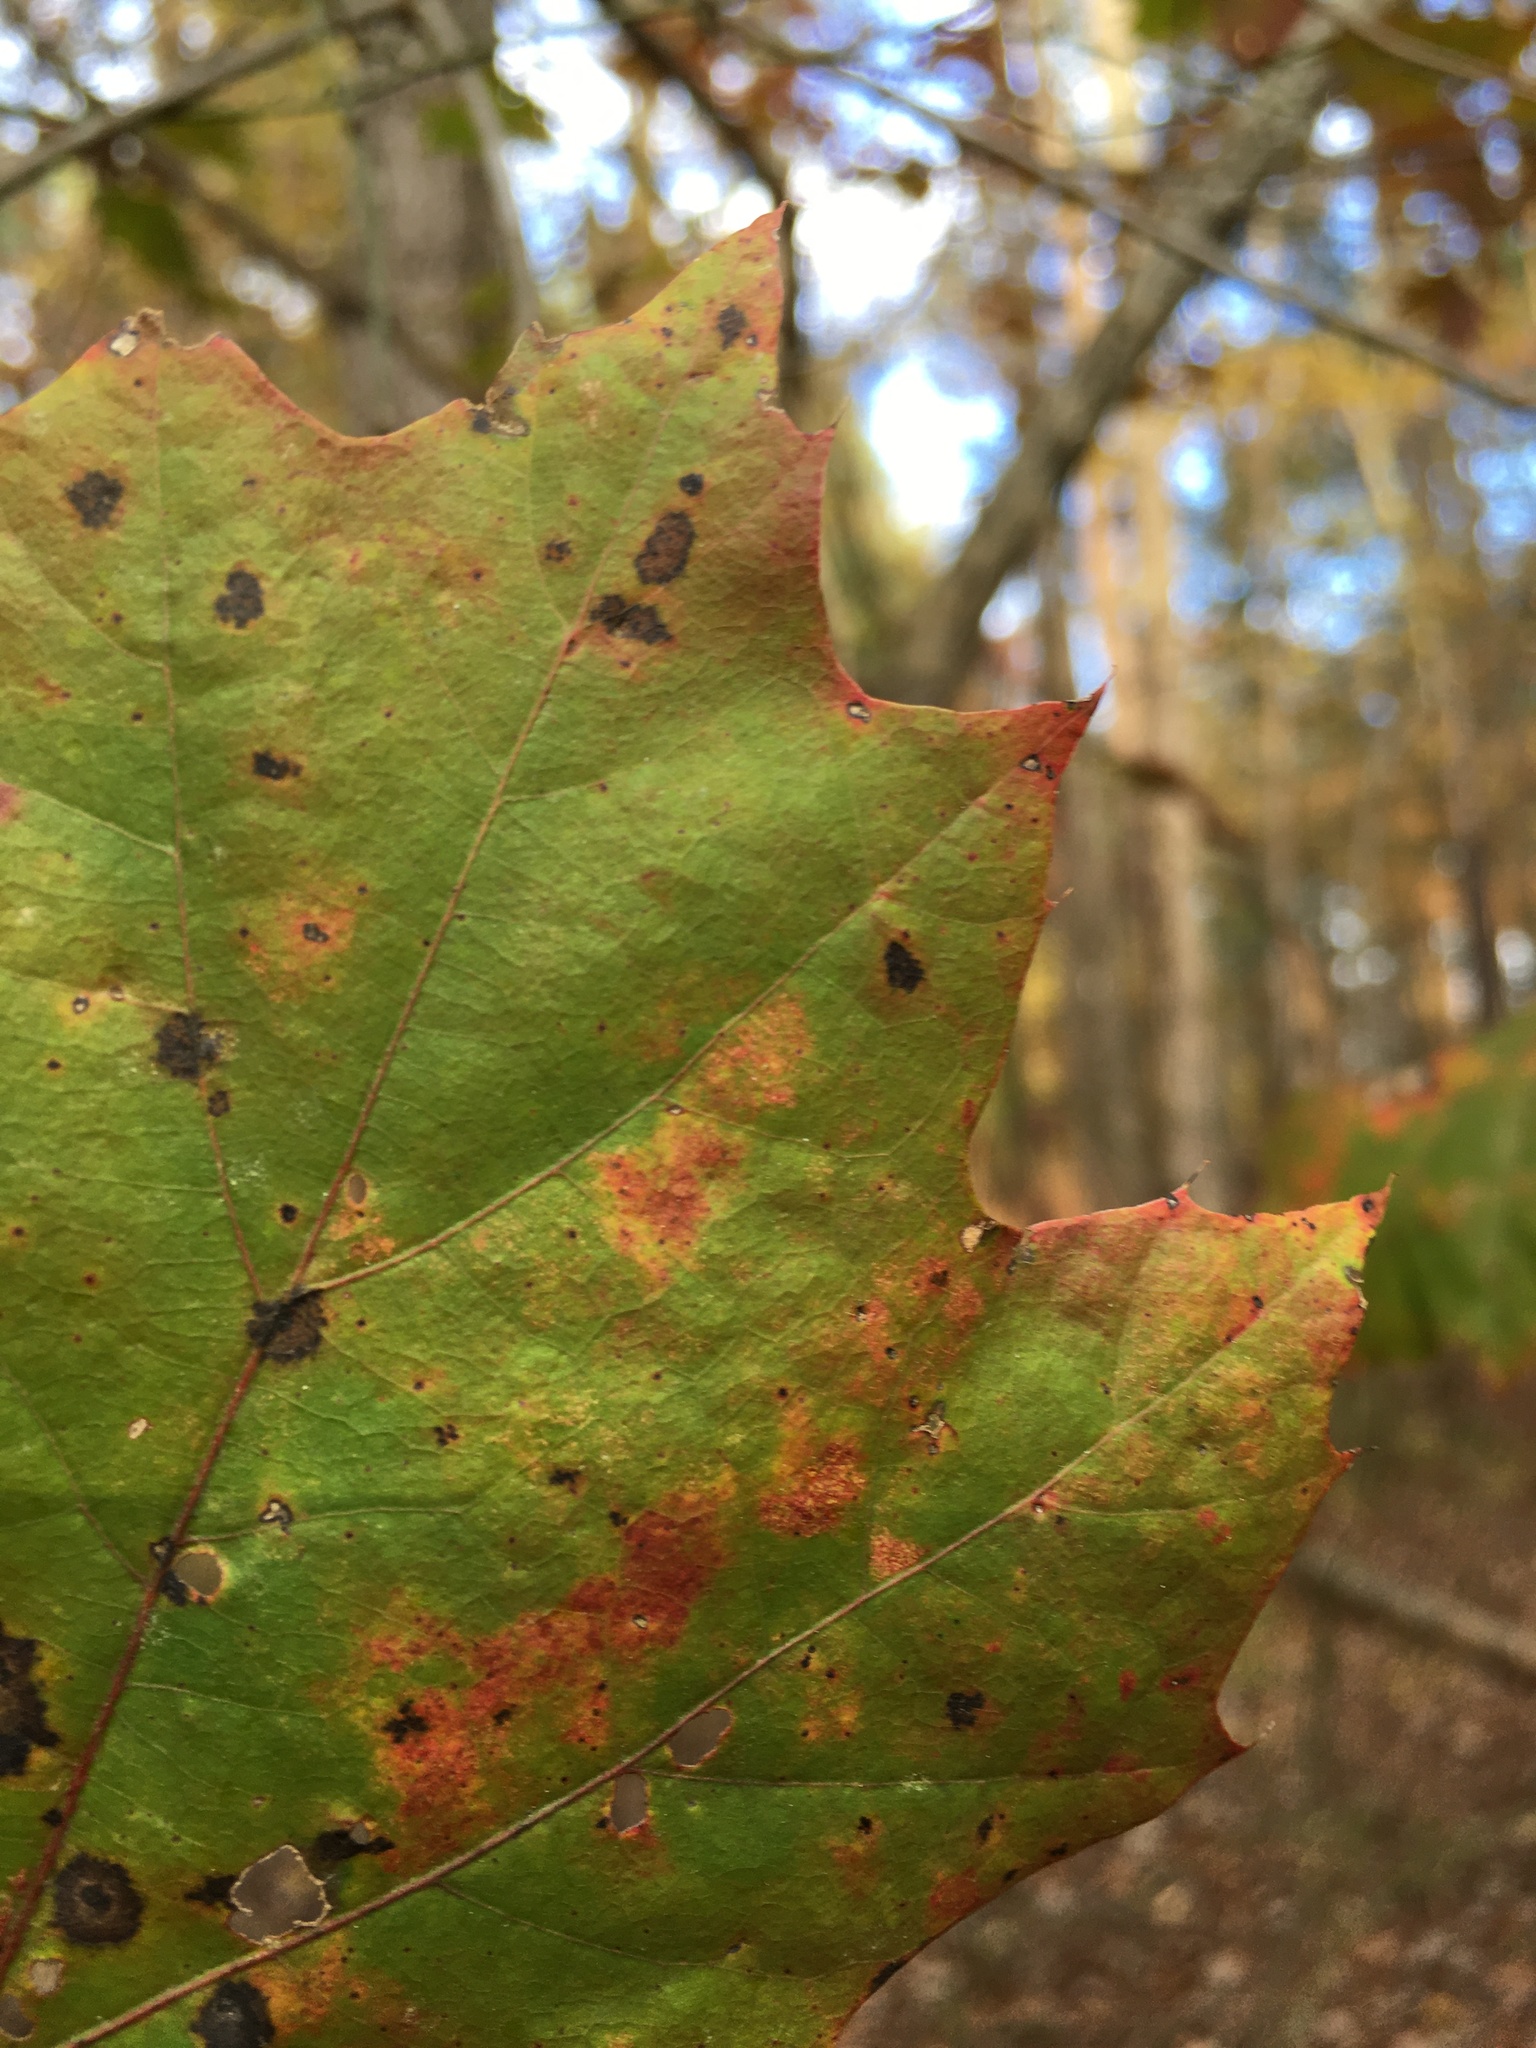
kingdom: Plantae
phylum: Tracheophyta
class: Magnoliopsida
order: Fagales
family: Fagaceae
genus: Quercus
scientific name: Quercus rubra
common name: Red oak
